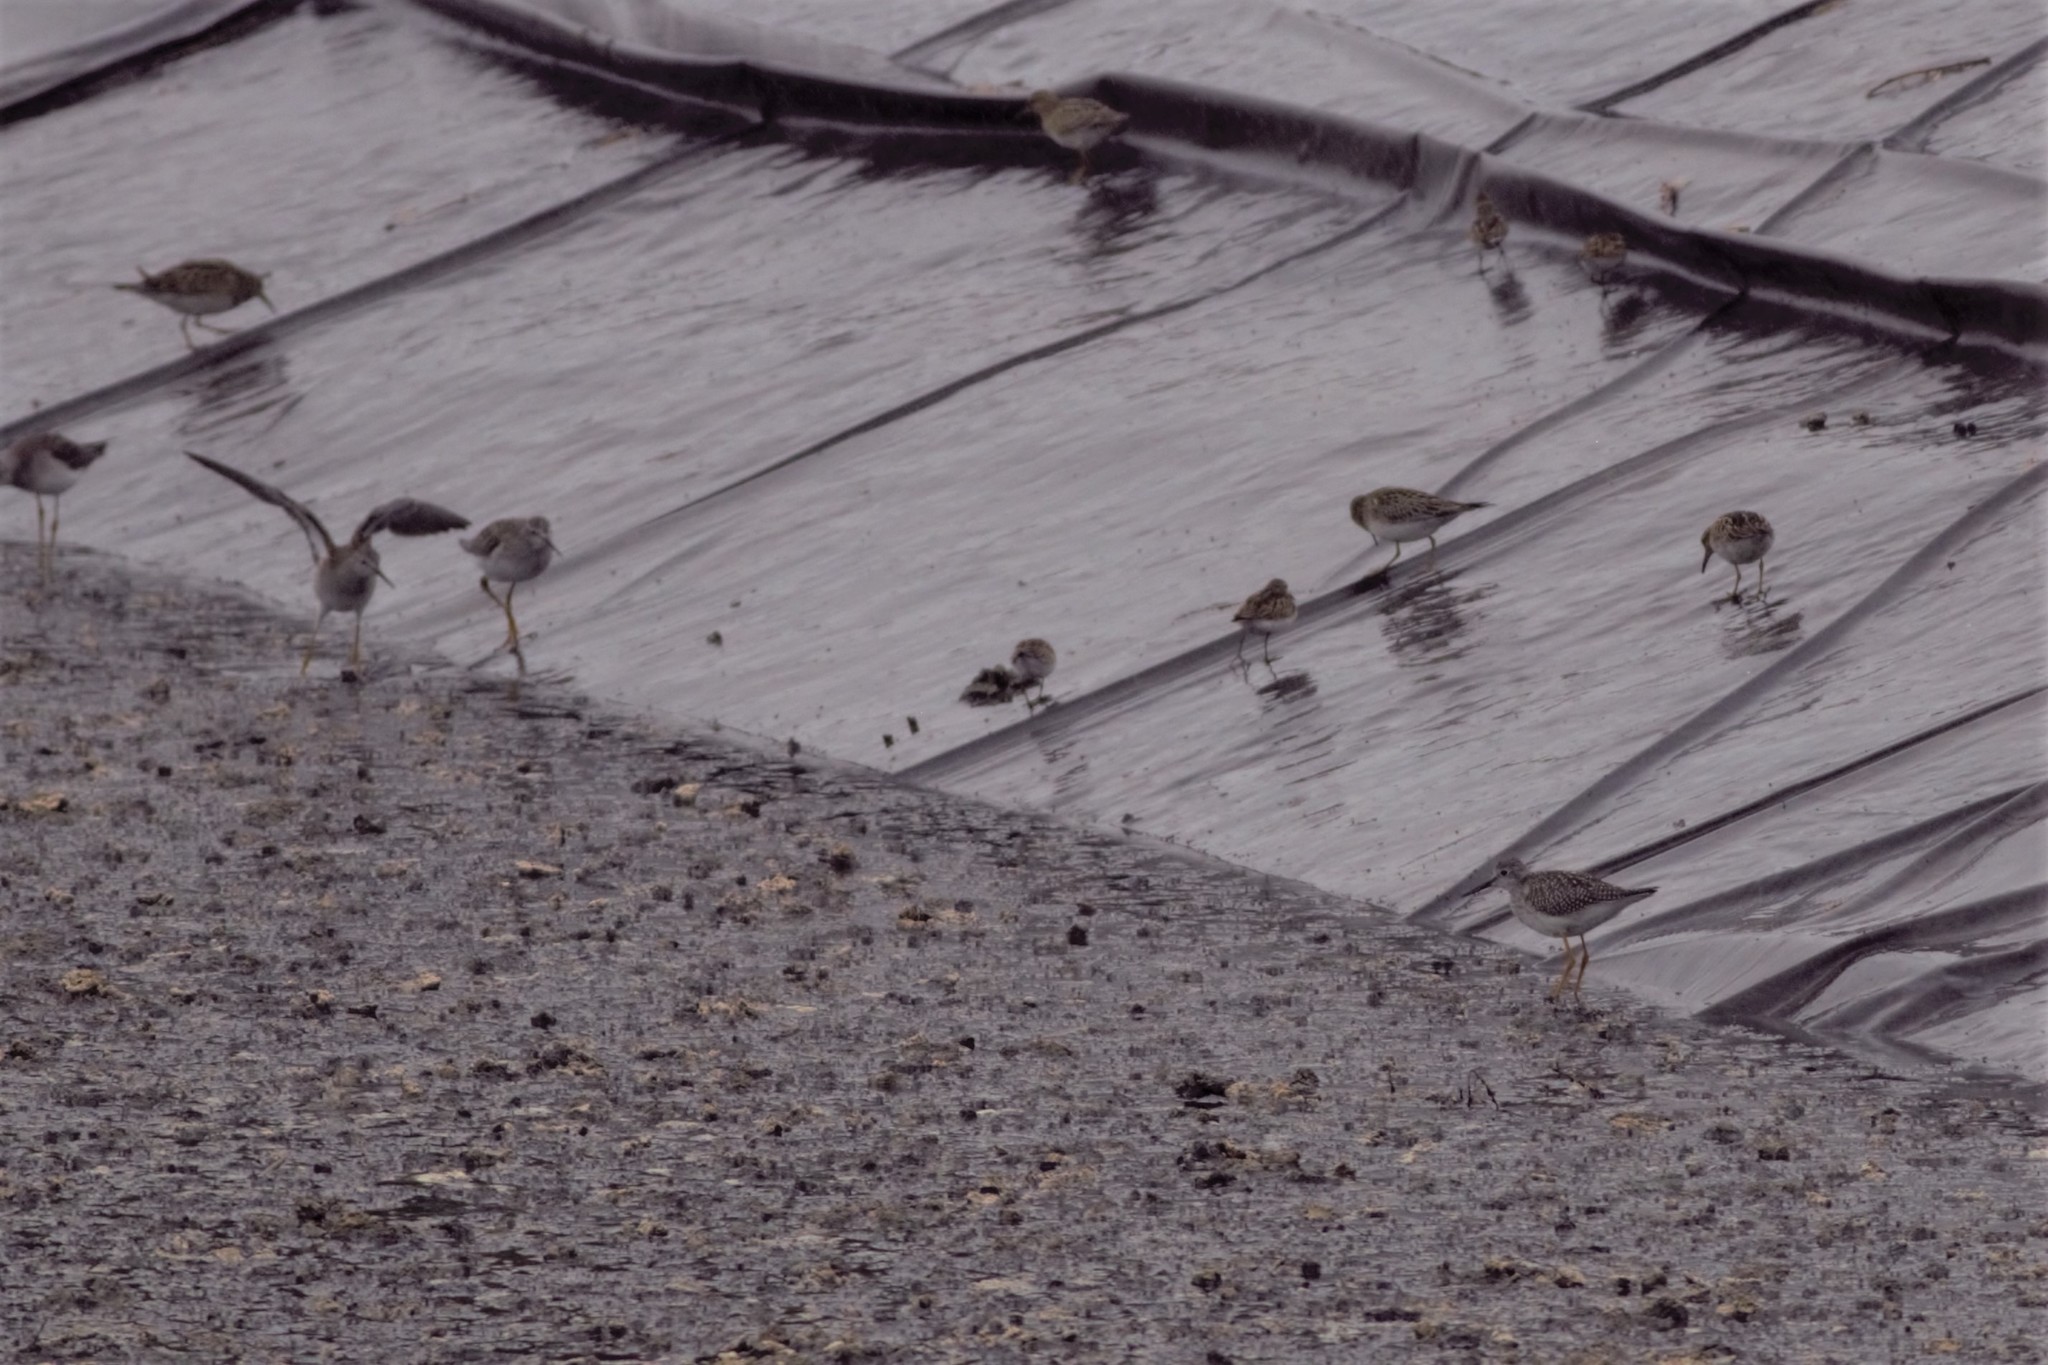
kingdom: Animalia
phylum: Chordata
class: Aves
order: Charadriiformes
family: Scolopacidae
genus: Calidris
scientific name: Calidris melanotos
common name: Pectoral sandpiper
